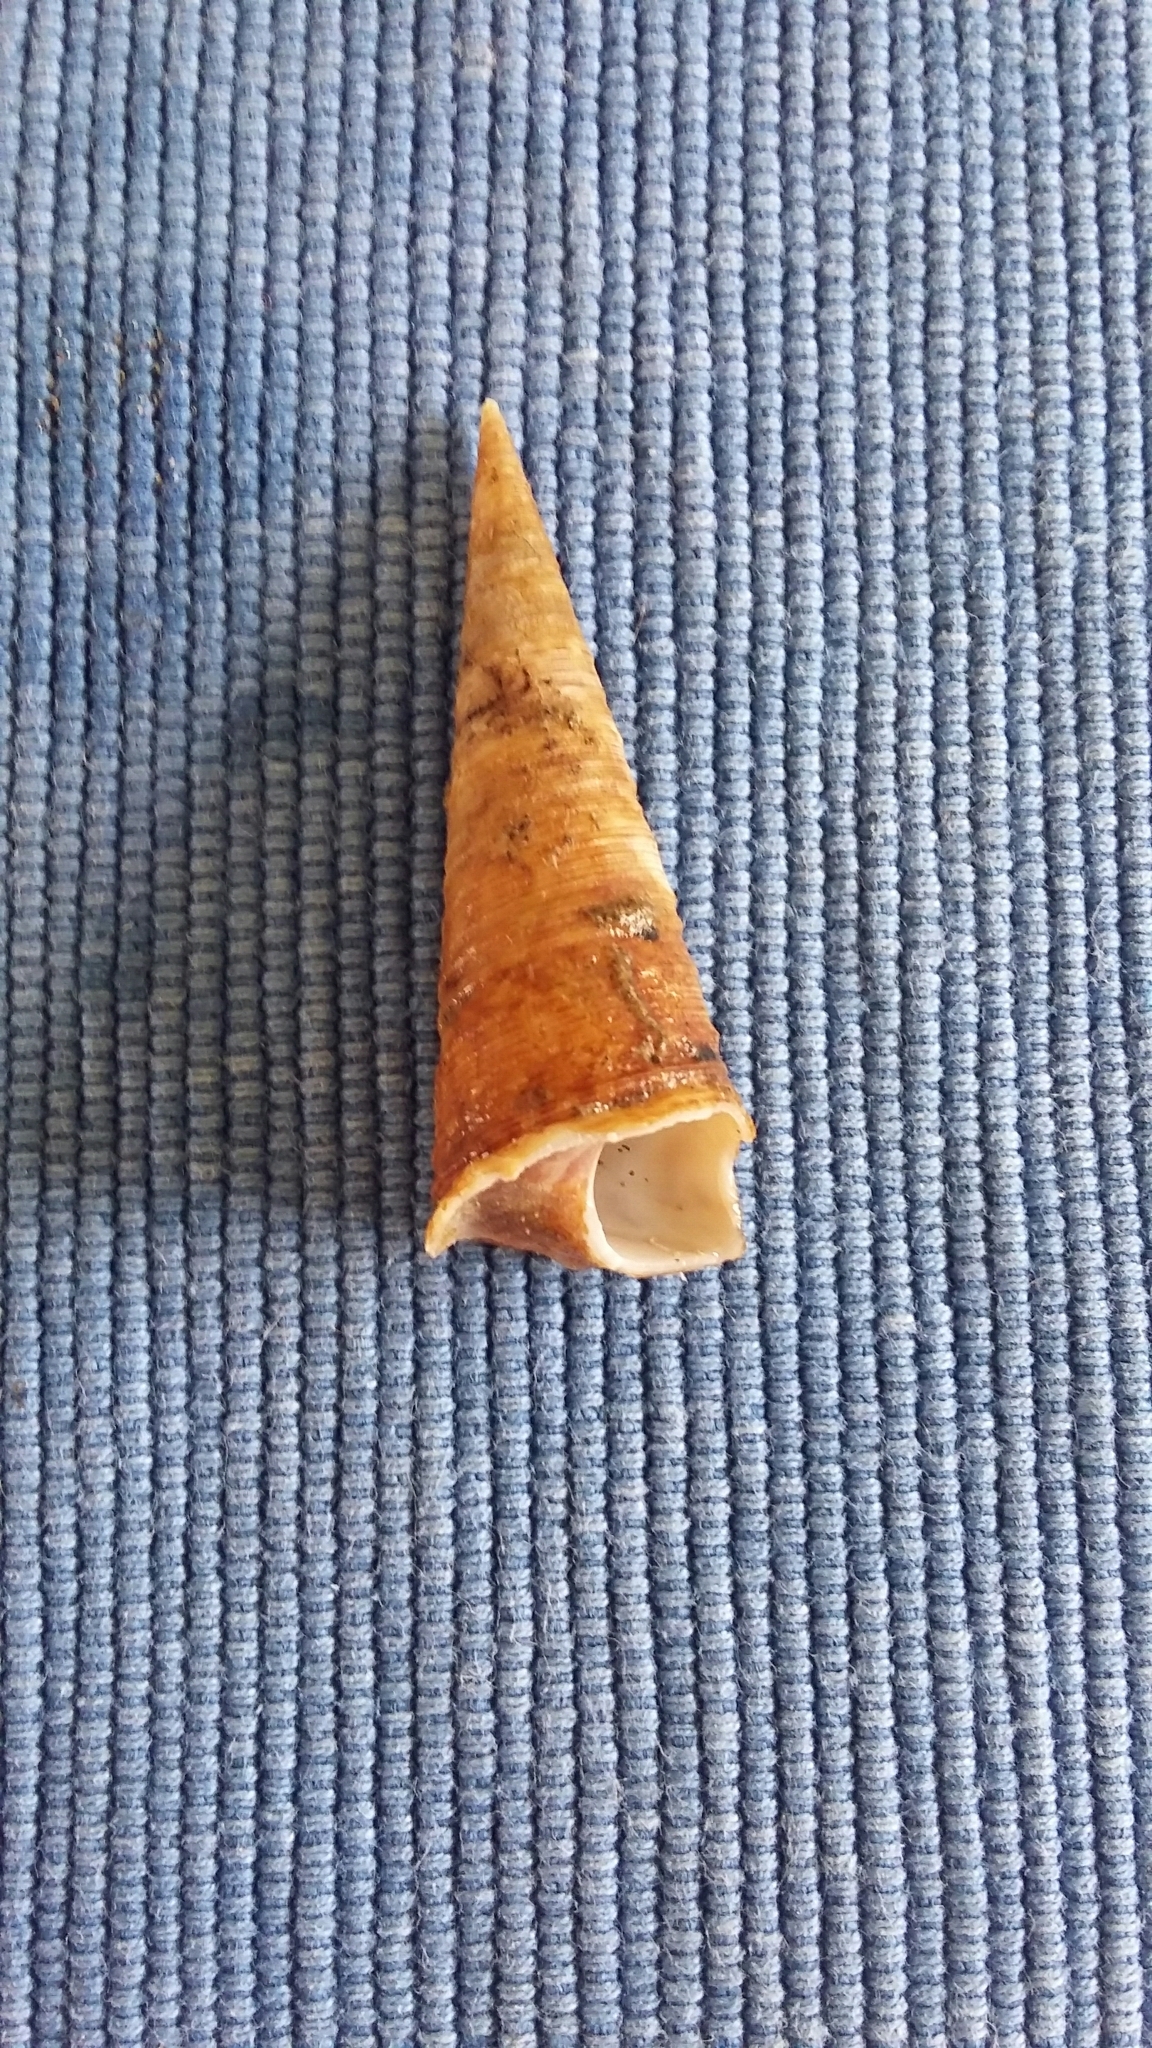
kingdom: Animalia
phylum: Mollusca
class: Gastropoda
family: Turritellidae
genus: Maoricolpus
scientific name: Maoricolpus roseus
